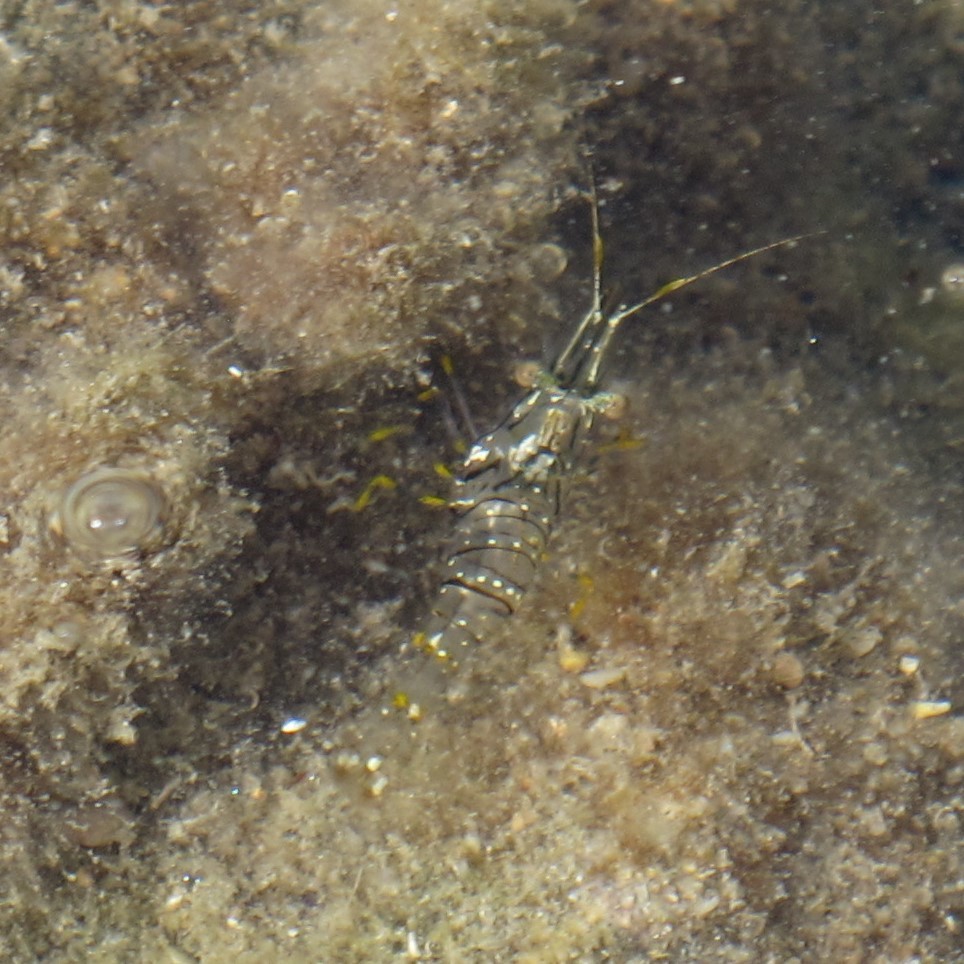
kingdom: Animalia
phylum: Arthropoda
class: Malacostraca
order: Decapoda
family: Palaemonidae
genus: Palaemon
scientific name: Palaemon elegans
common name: Grass prawm
